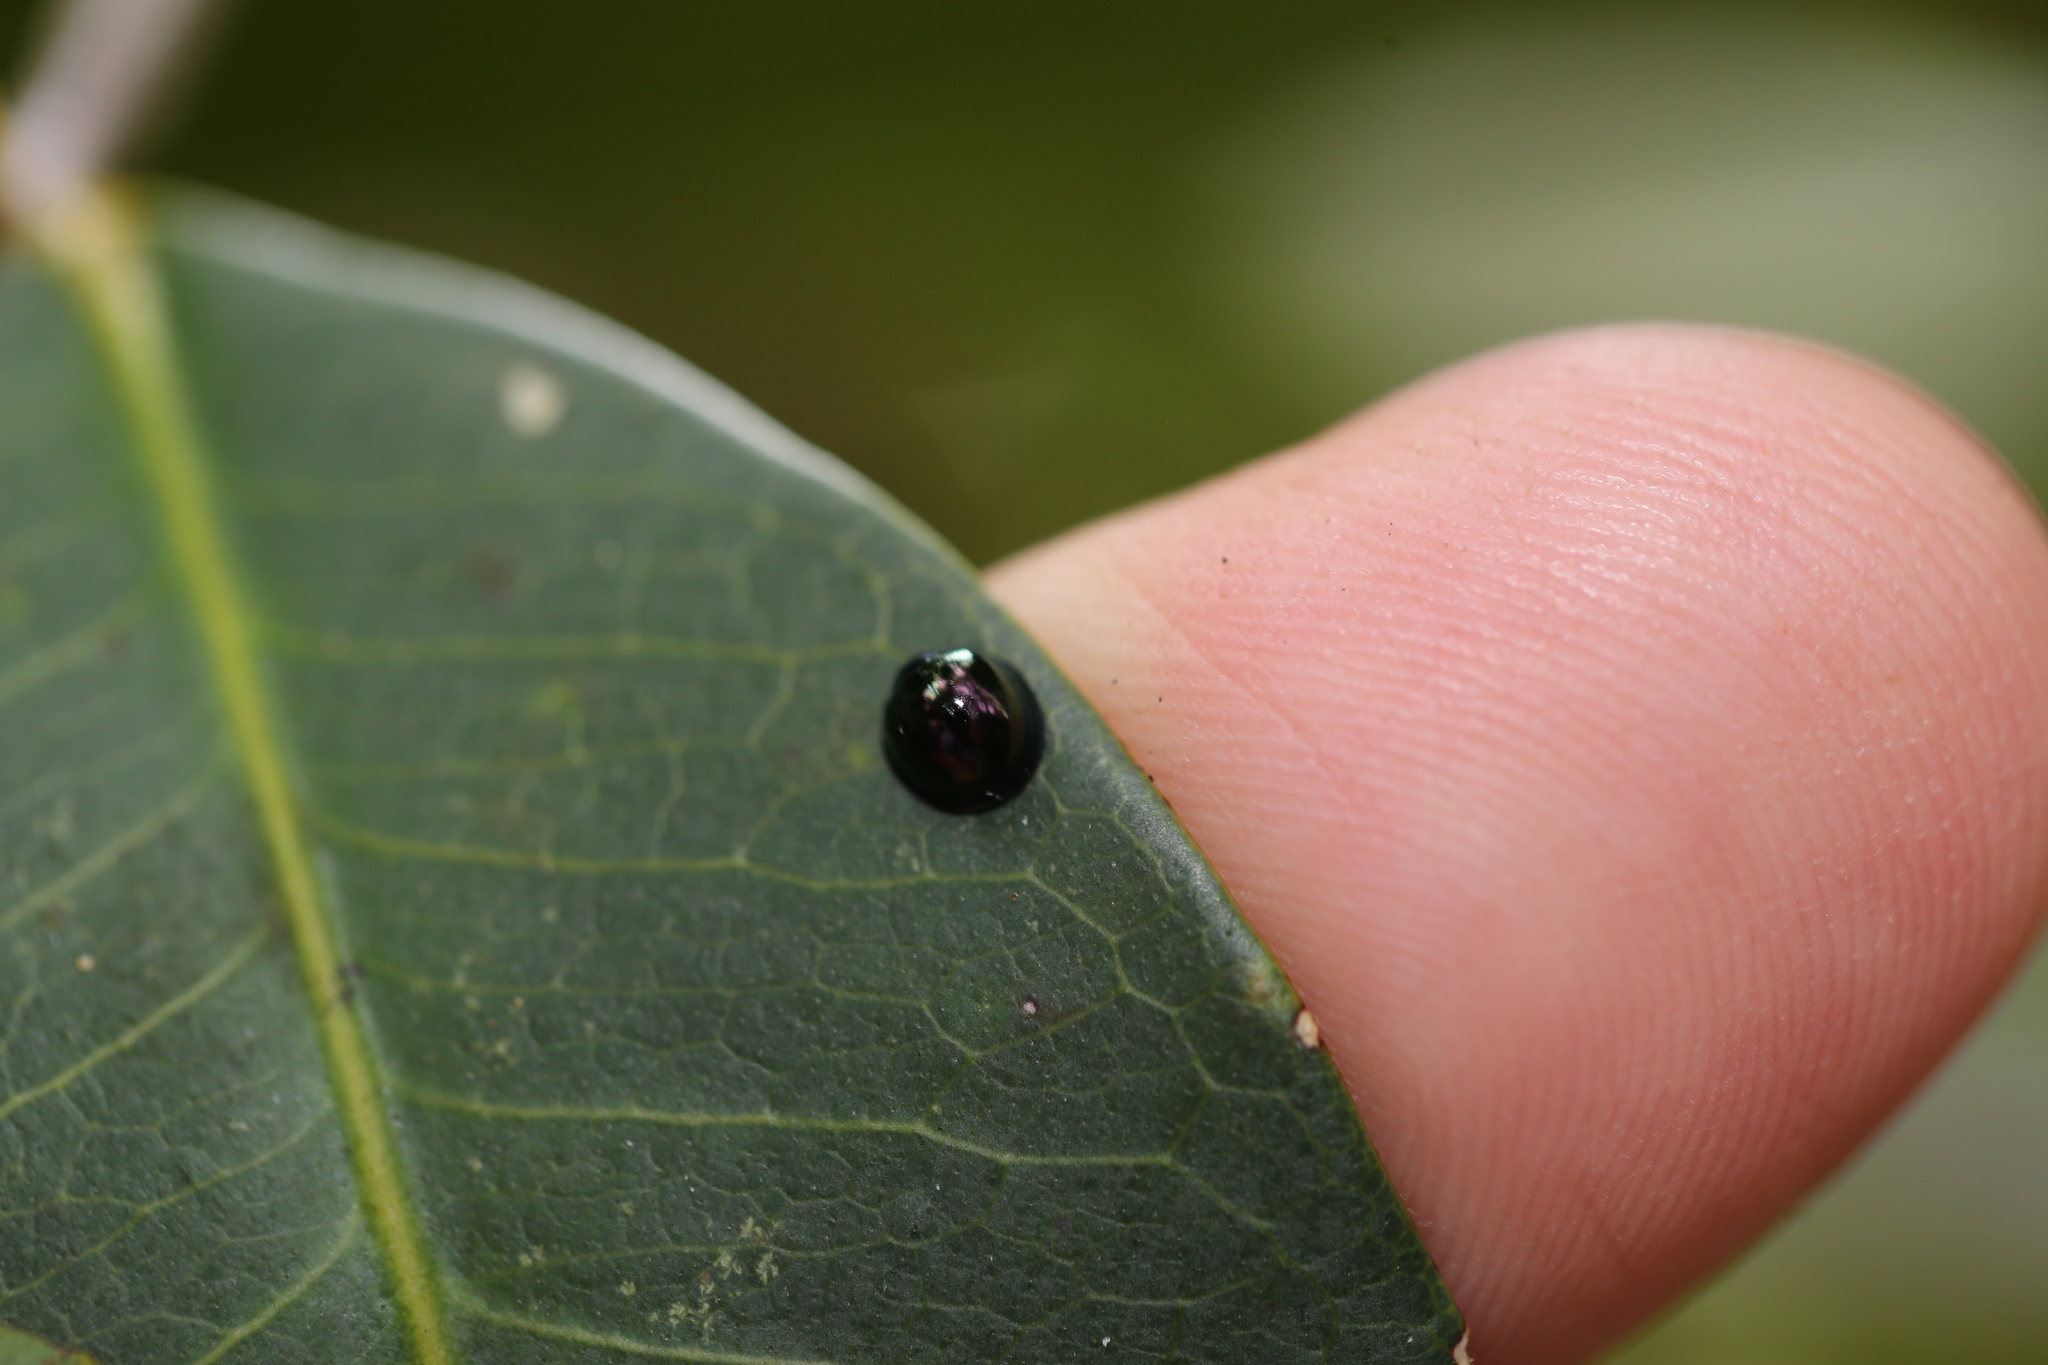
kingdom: Animalia
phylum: Arthropoda
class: Insecta
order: Coleoptera
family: Coccinellidae
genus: Halmus
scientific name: Halmus chalybeus
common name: Steel blue ladybird beetle
